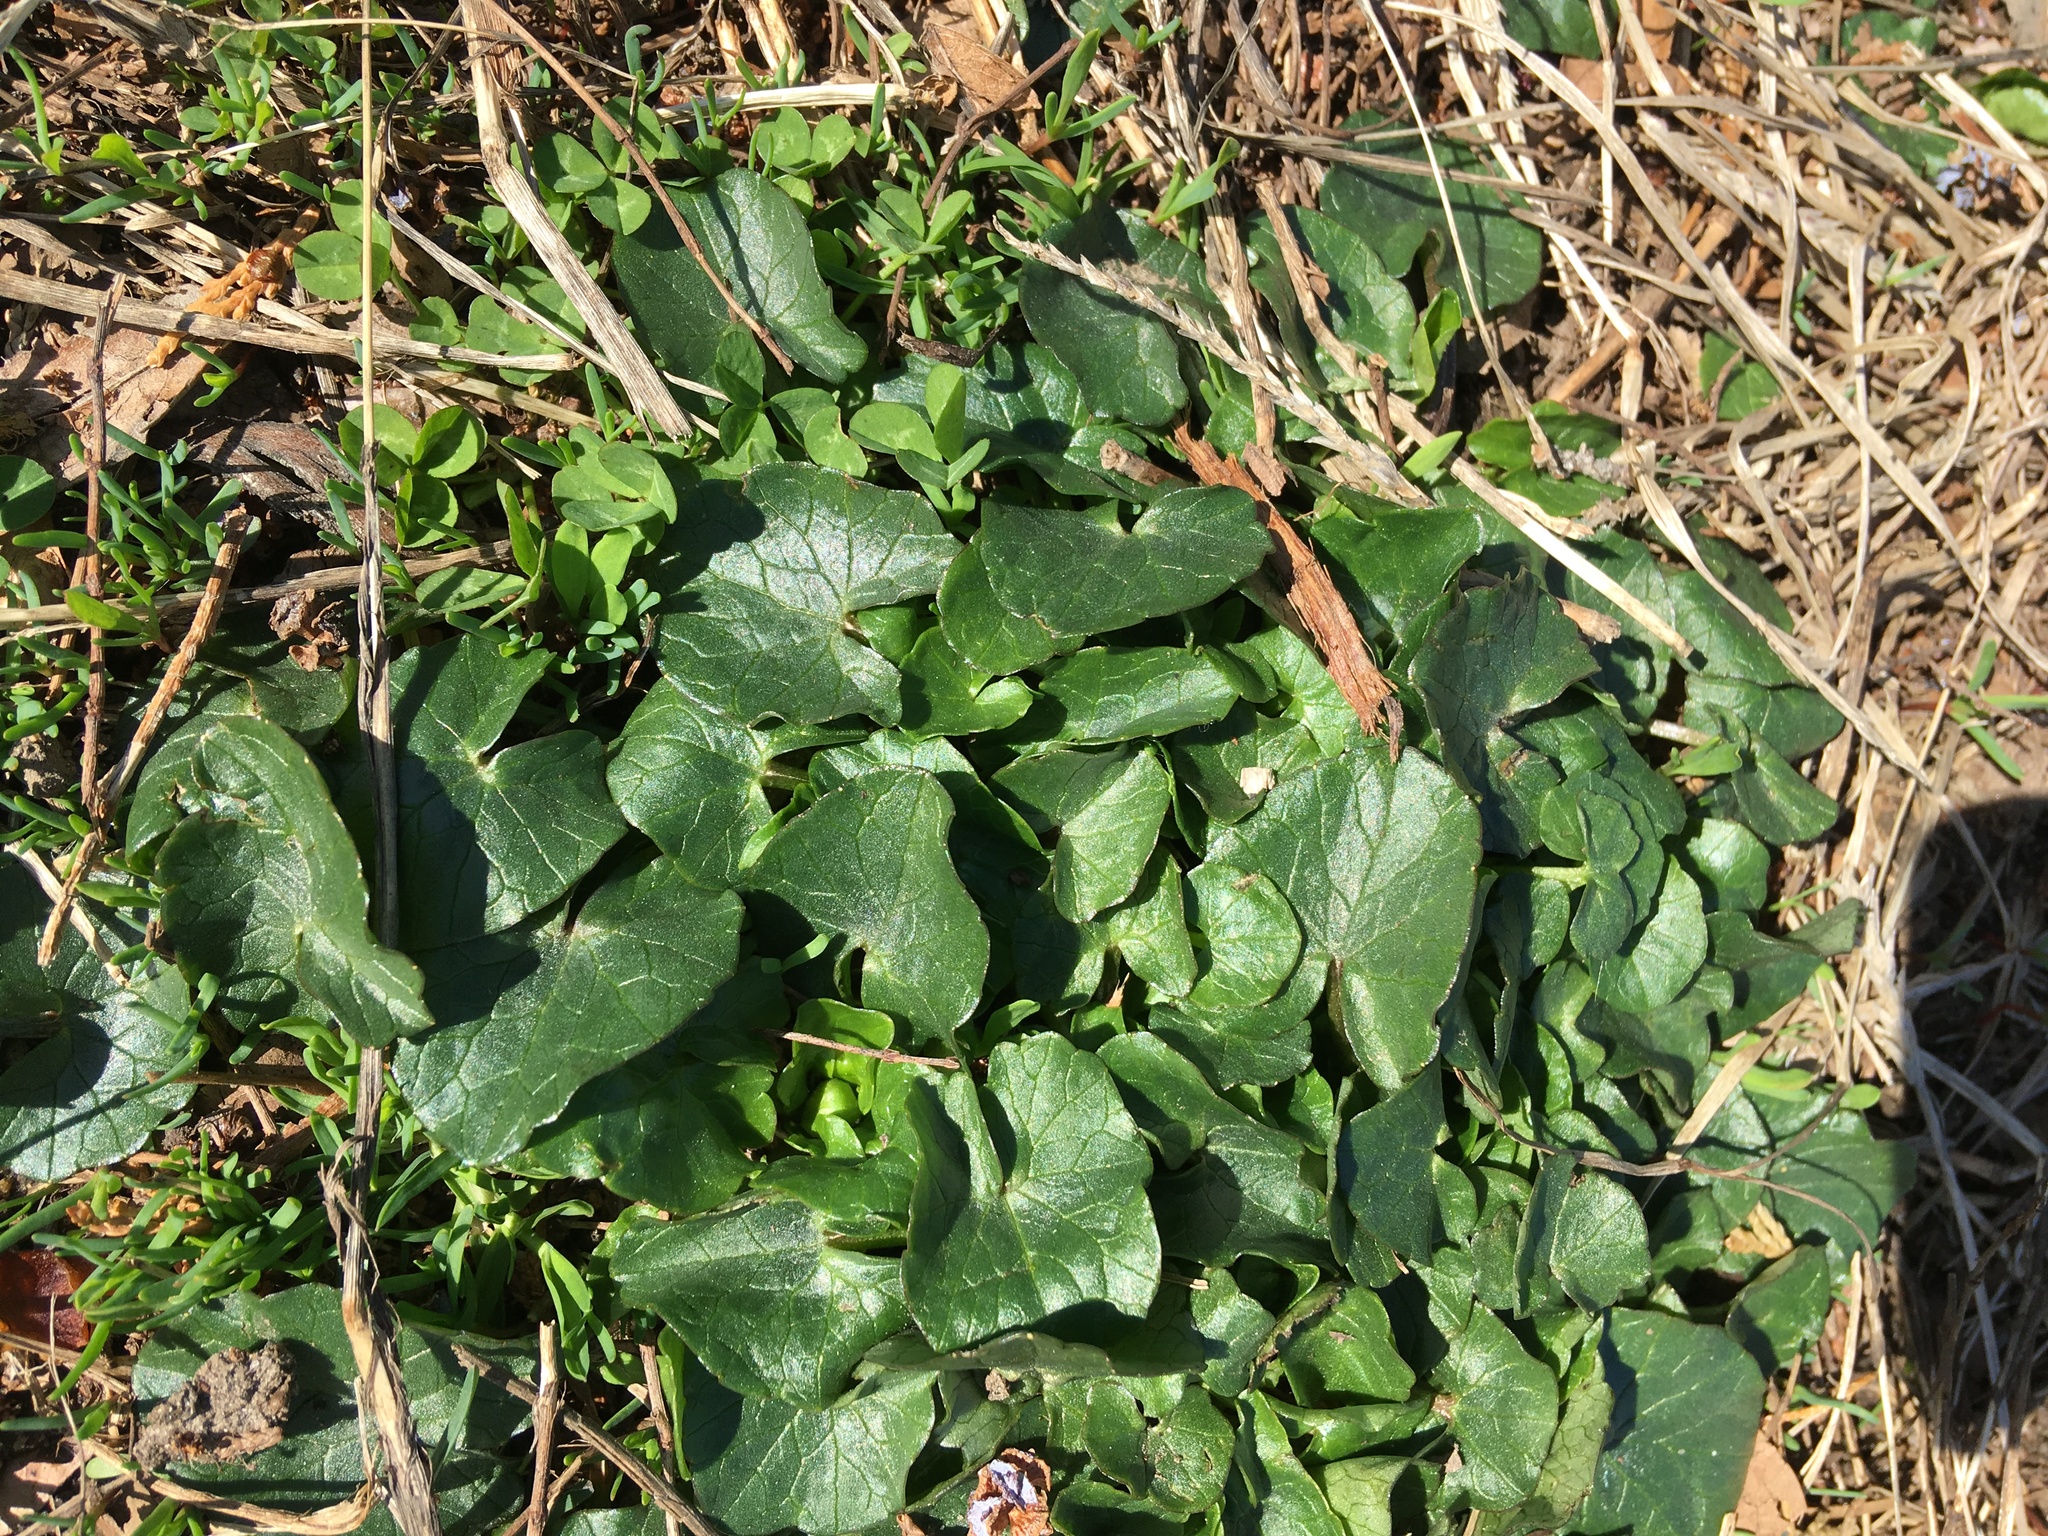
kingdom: Plantae
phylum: Tracheophyta
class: Magnoliopsida
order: Ranunculales
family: Ranunculaceae
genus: Ficaria
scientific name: Ficaria verna
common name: Lesser celandine
